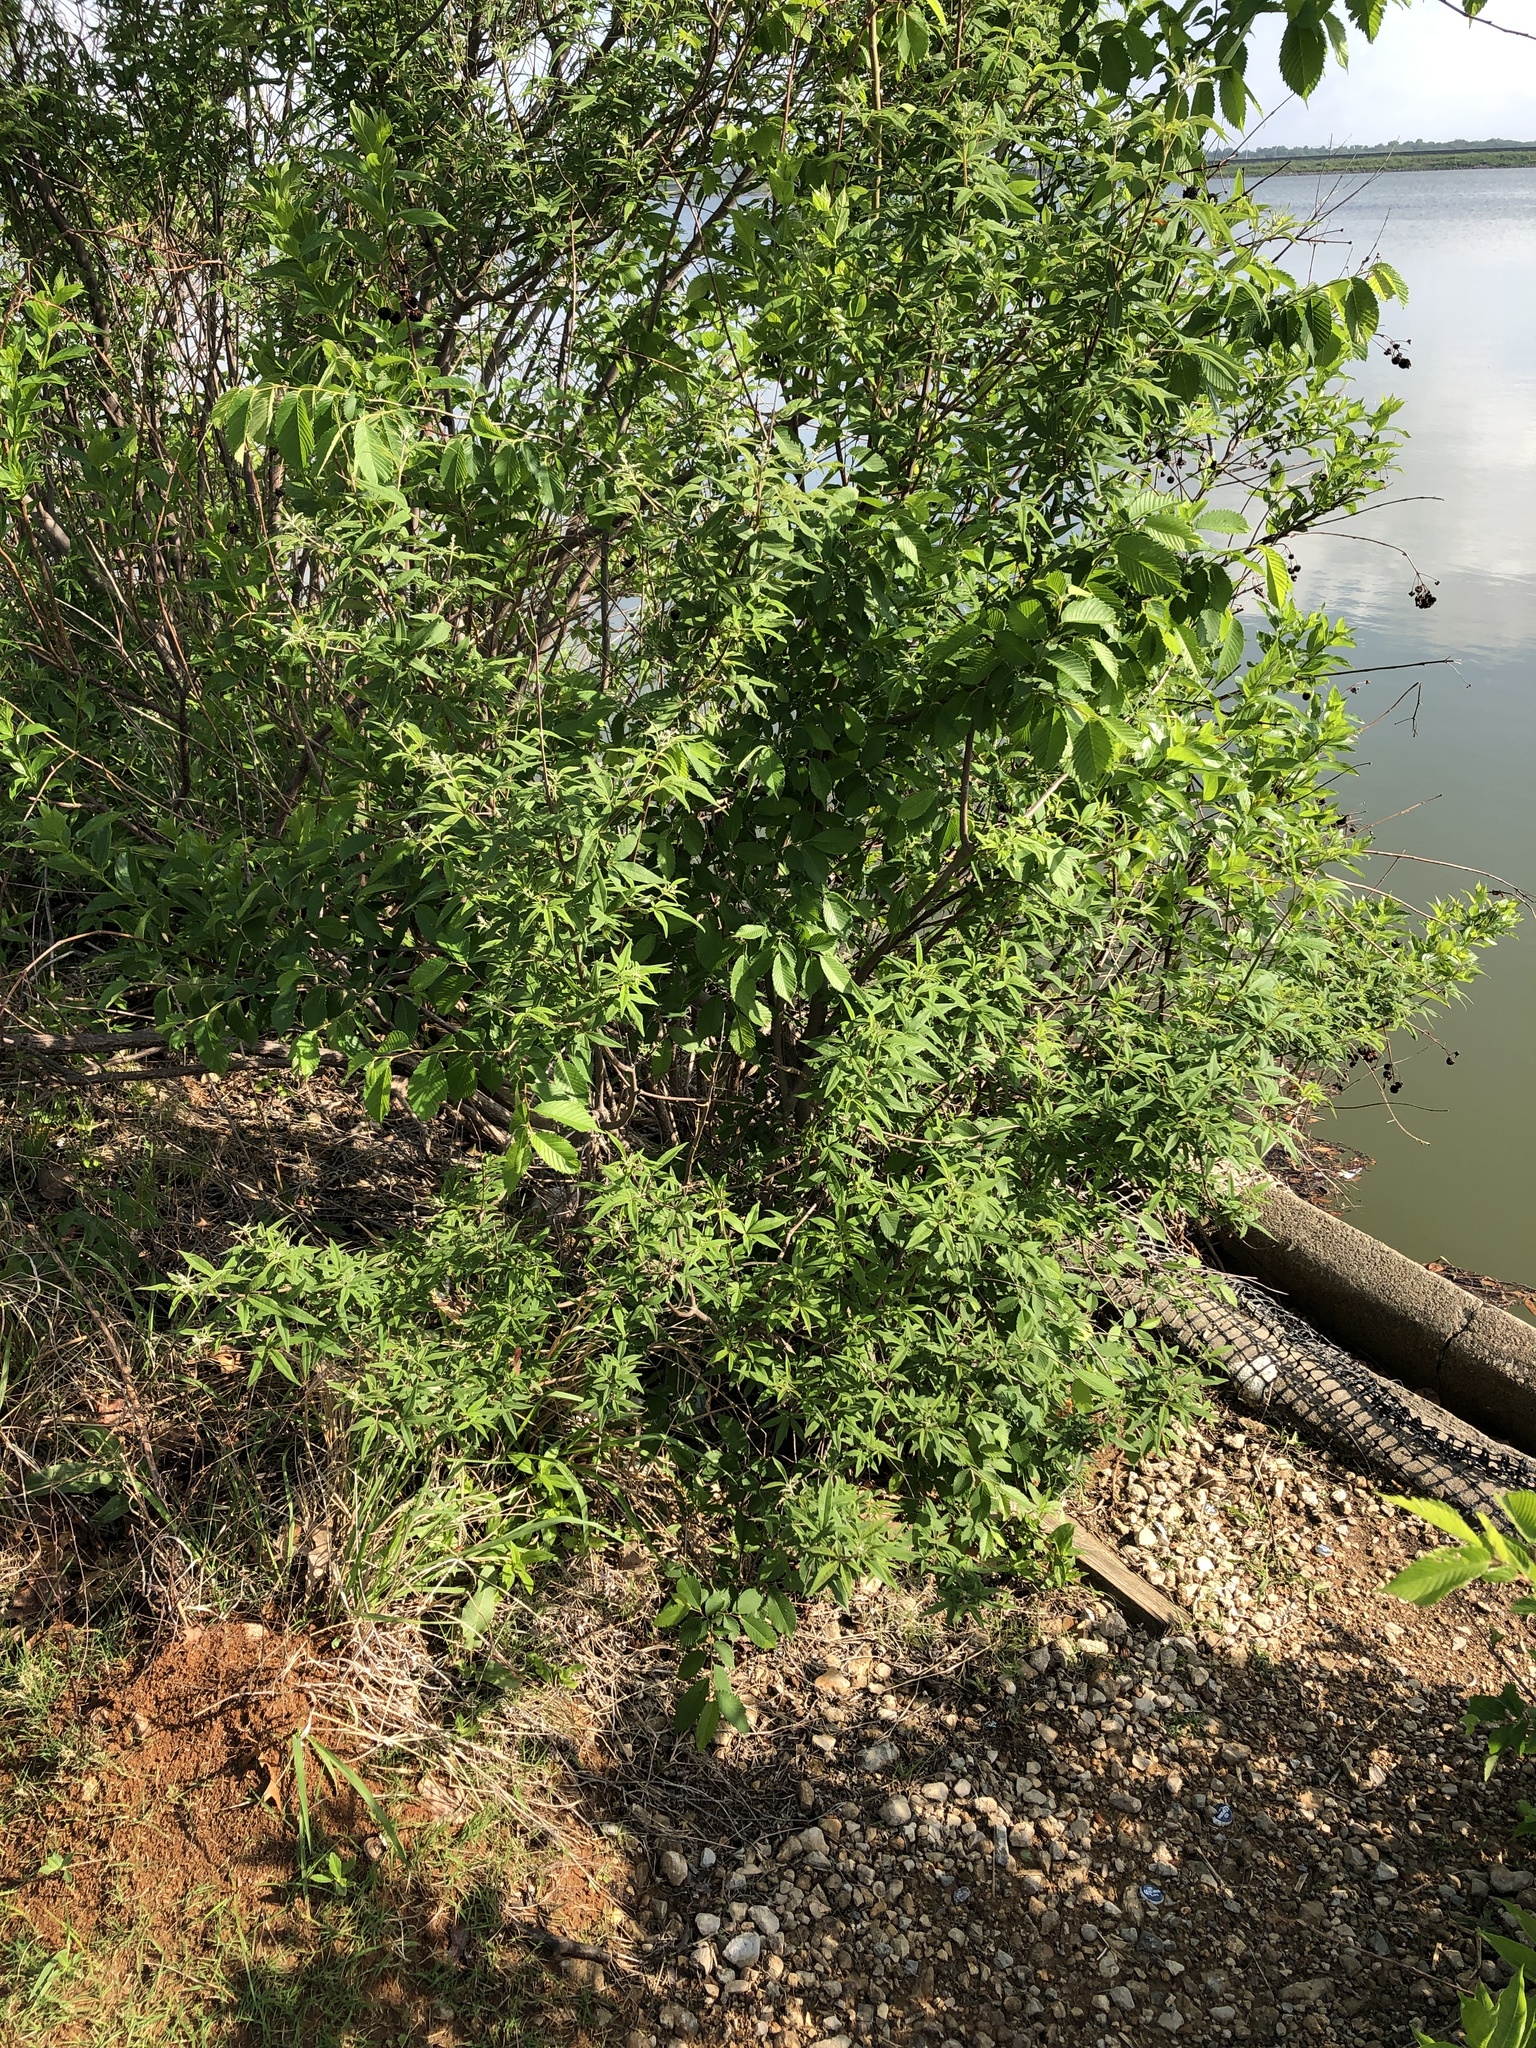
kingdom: Plantae
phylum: Tracheophyta
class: Magnoliopsida
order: Lamiales
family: Lamiaceae
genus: Vitex
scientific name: Vitex agnus-castus
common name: Chasteberry
